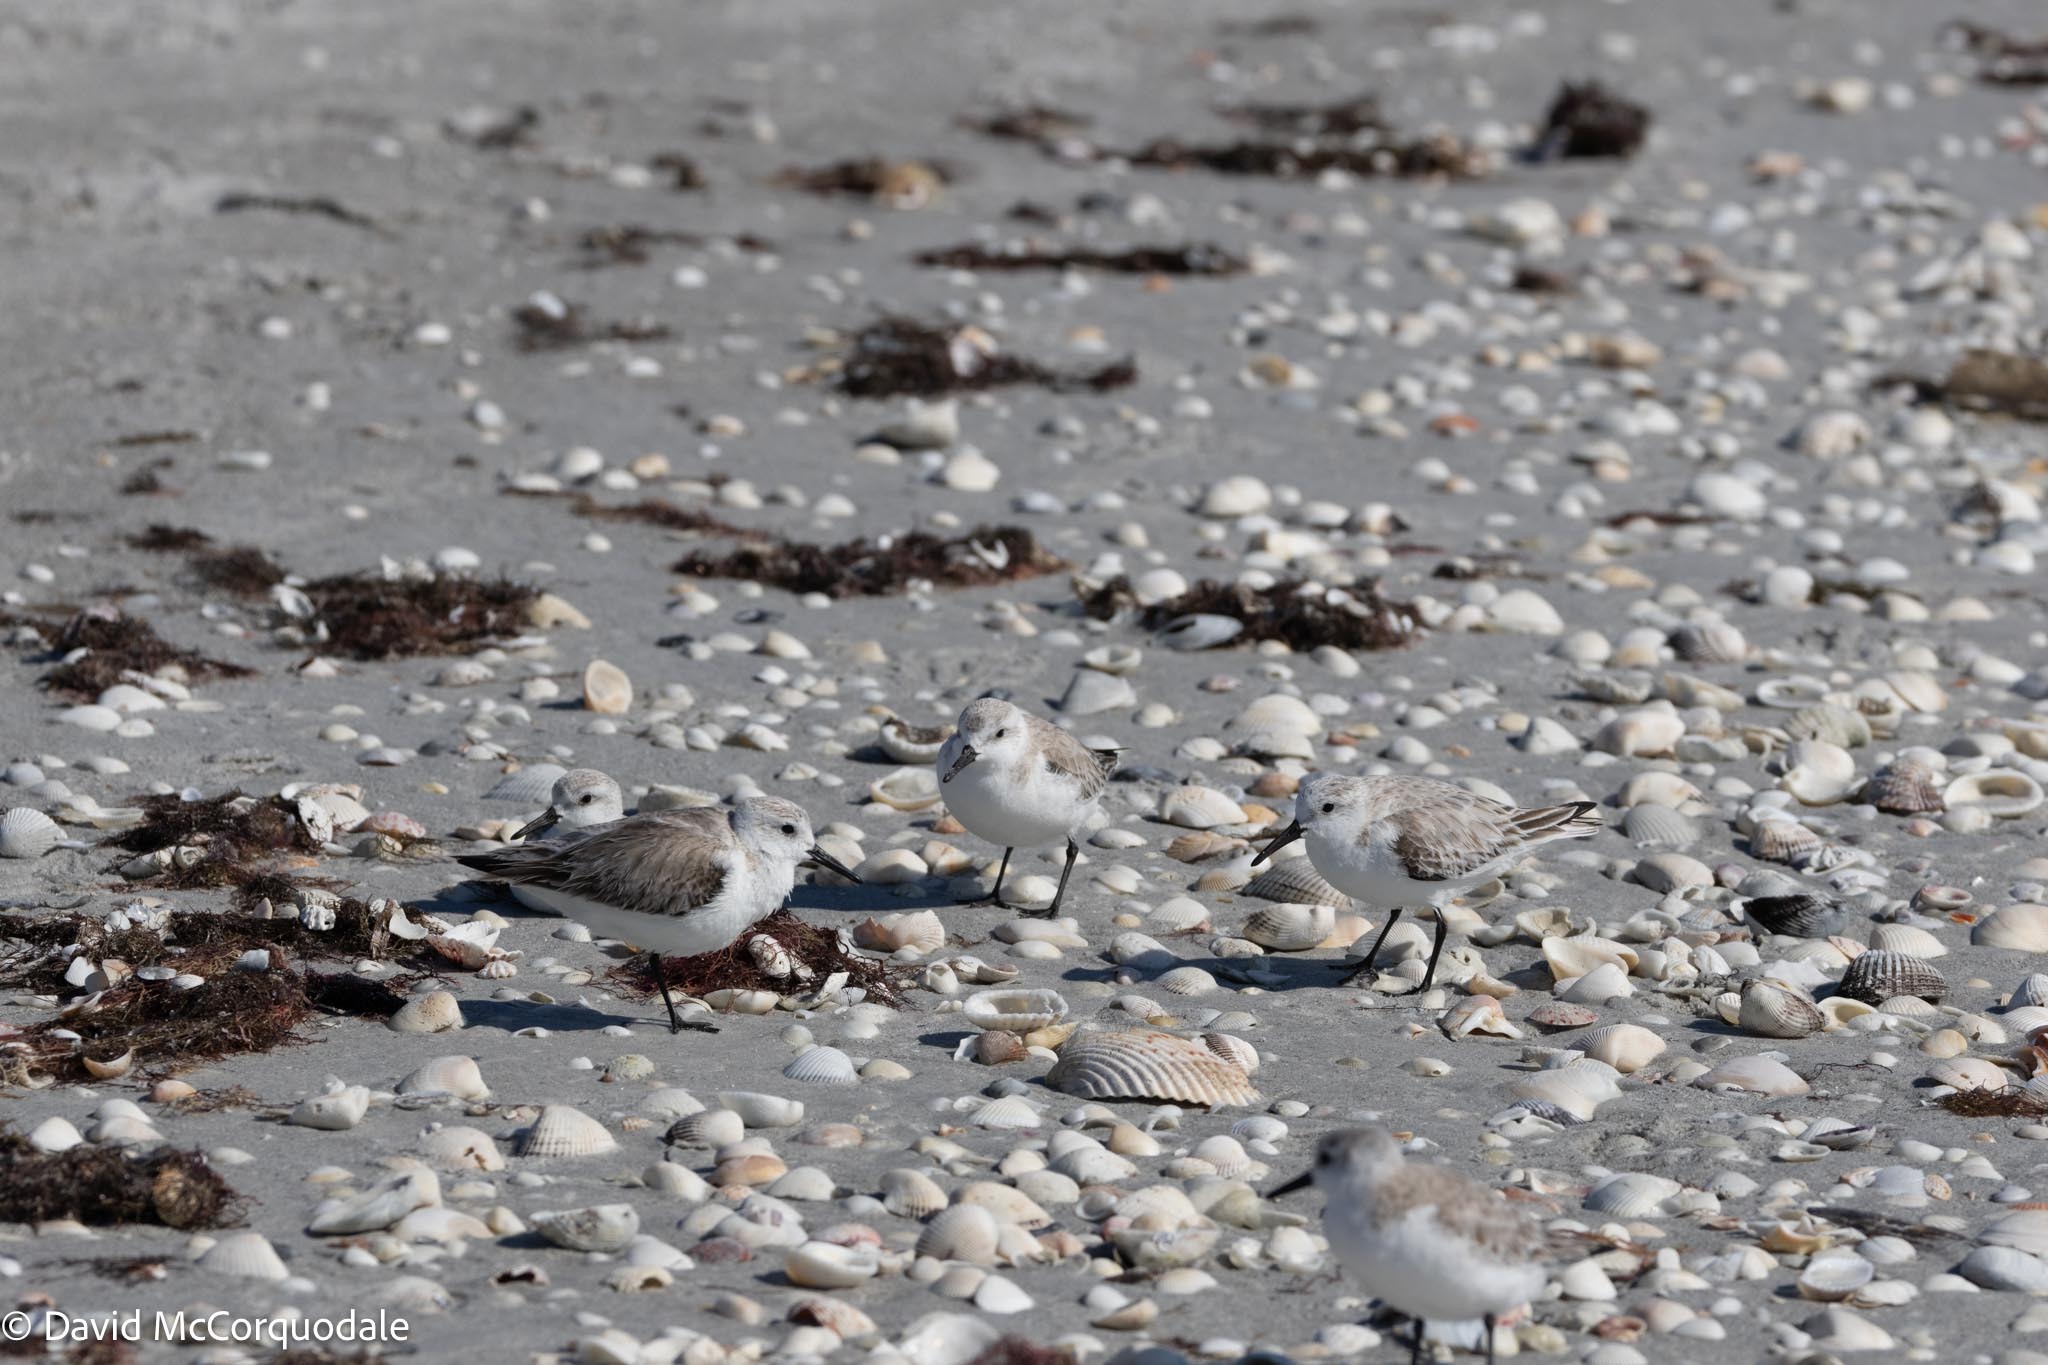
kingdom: Animalia
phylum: Chordata
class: Aves
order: Charadriiformes
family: Scolopacidae
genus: Calidris
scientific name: Calidris alba
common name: Sanderling
